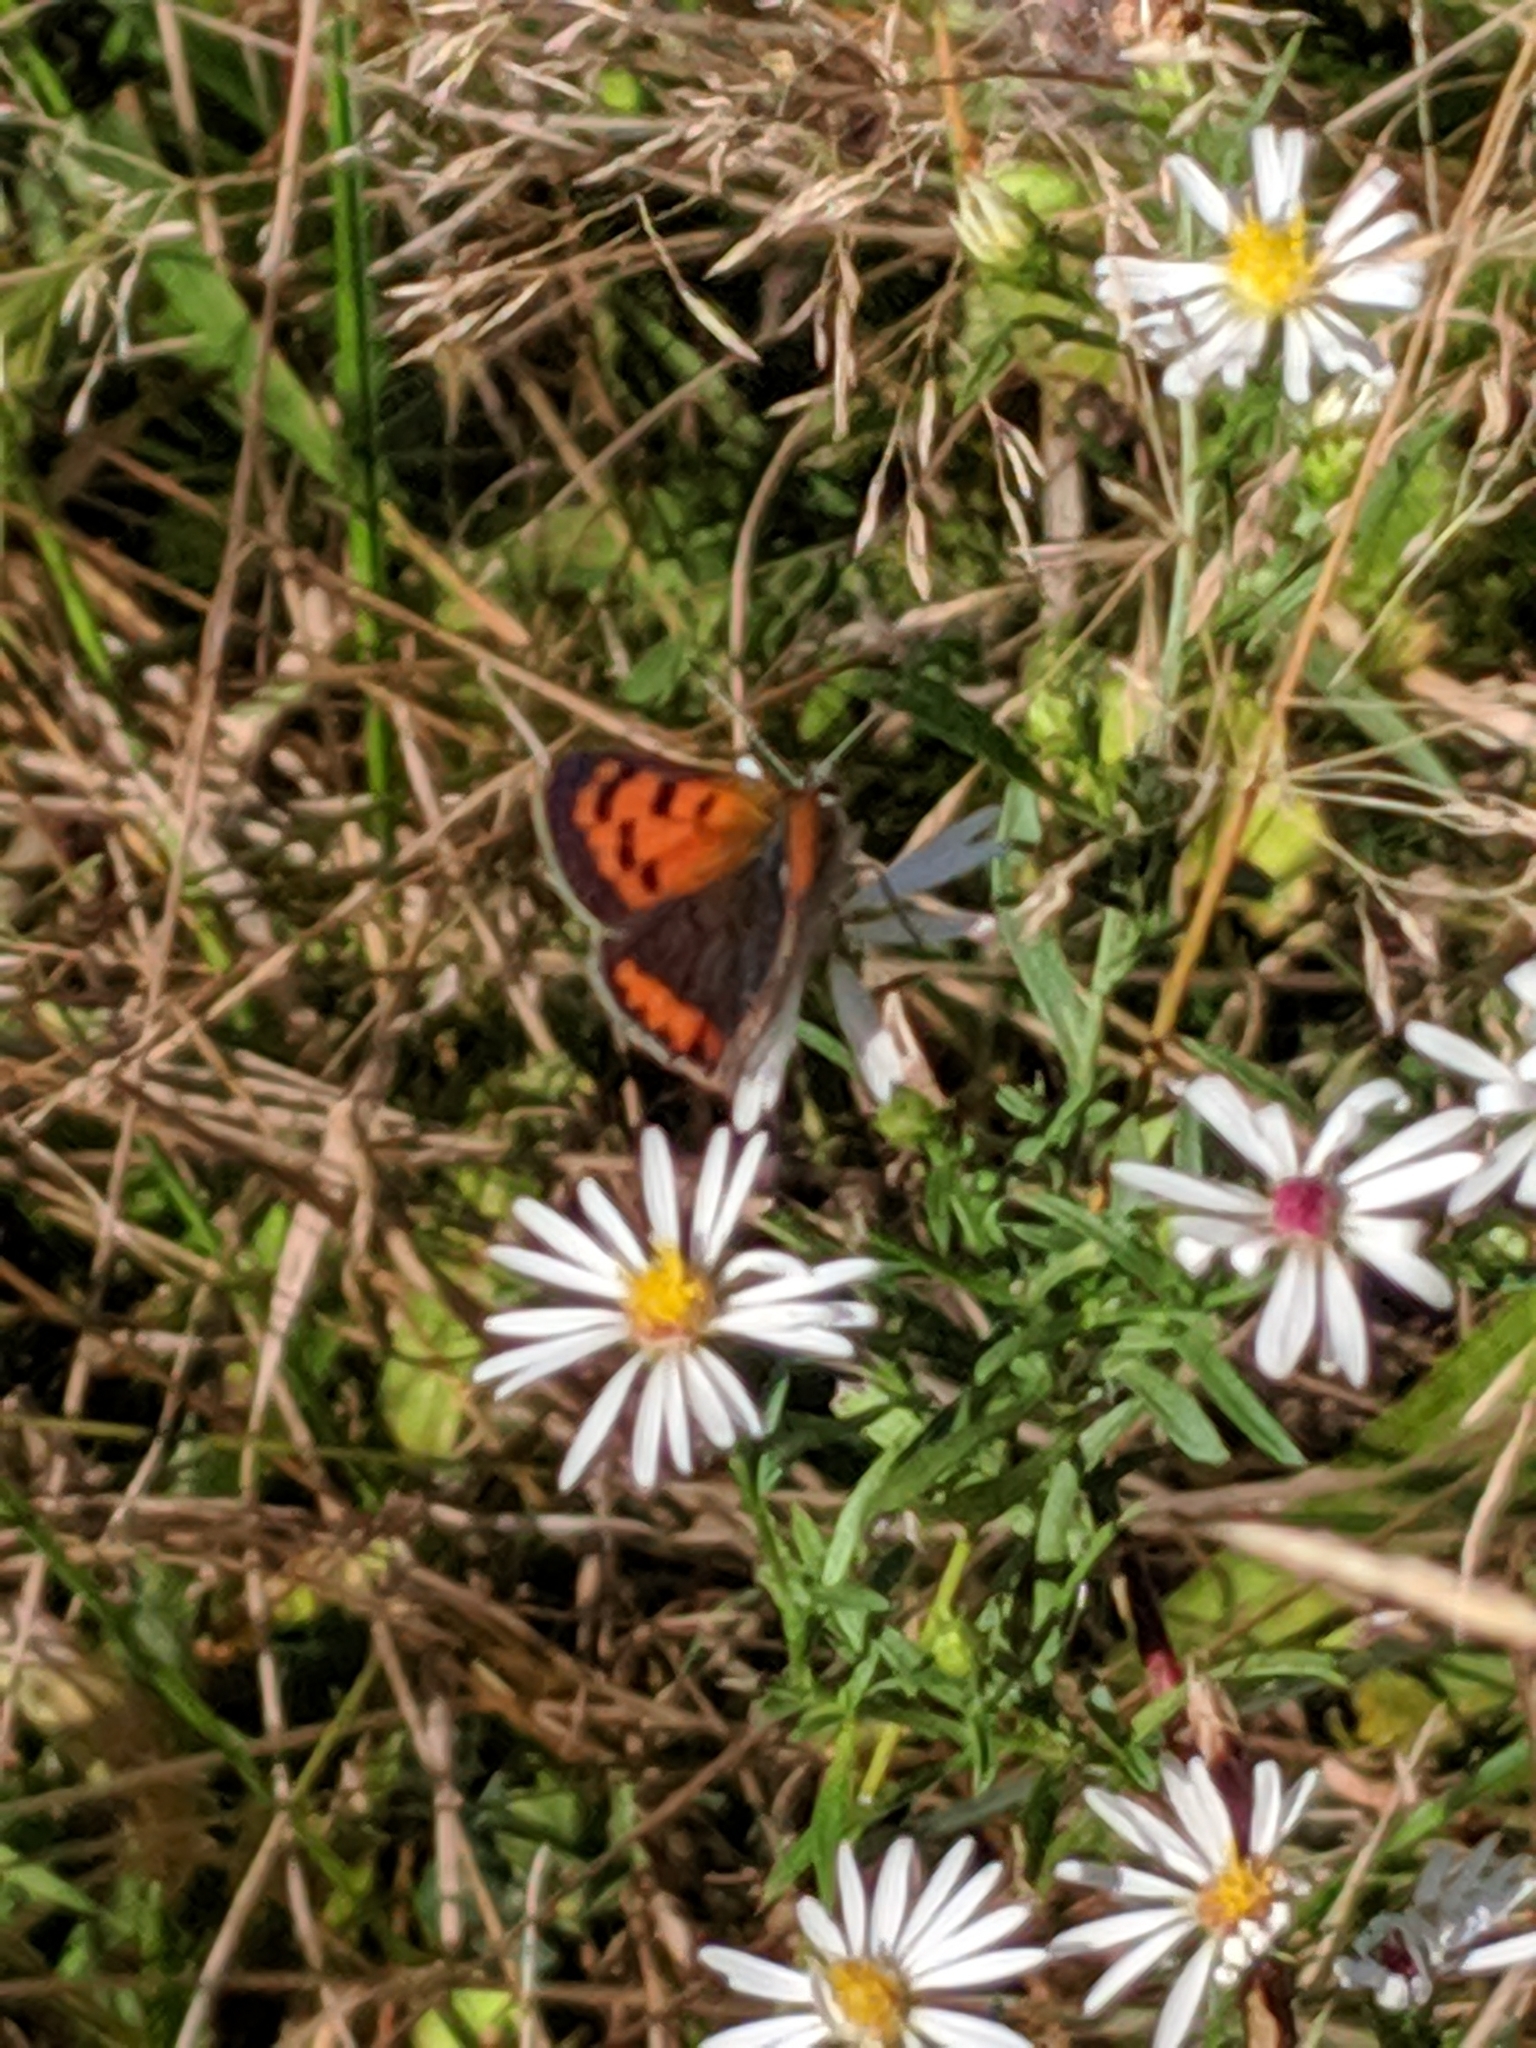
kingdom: Animalia
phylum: Arthropoda
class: Insecta
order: Lepidoptera
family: Lycaenidae
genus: Lycaena
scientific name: Lycaena hypophlaeas
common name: American copper
